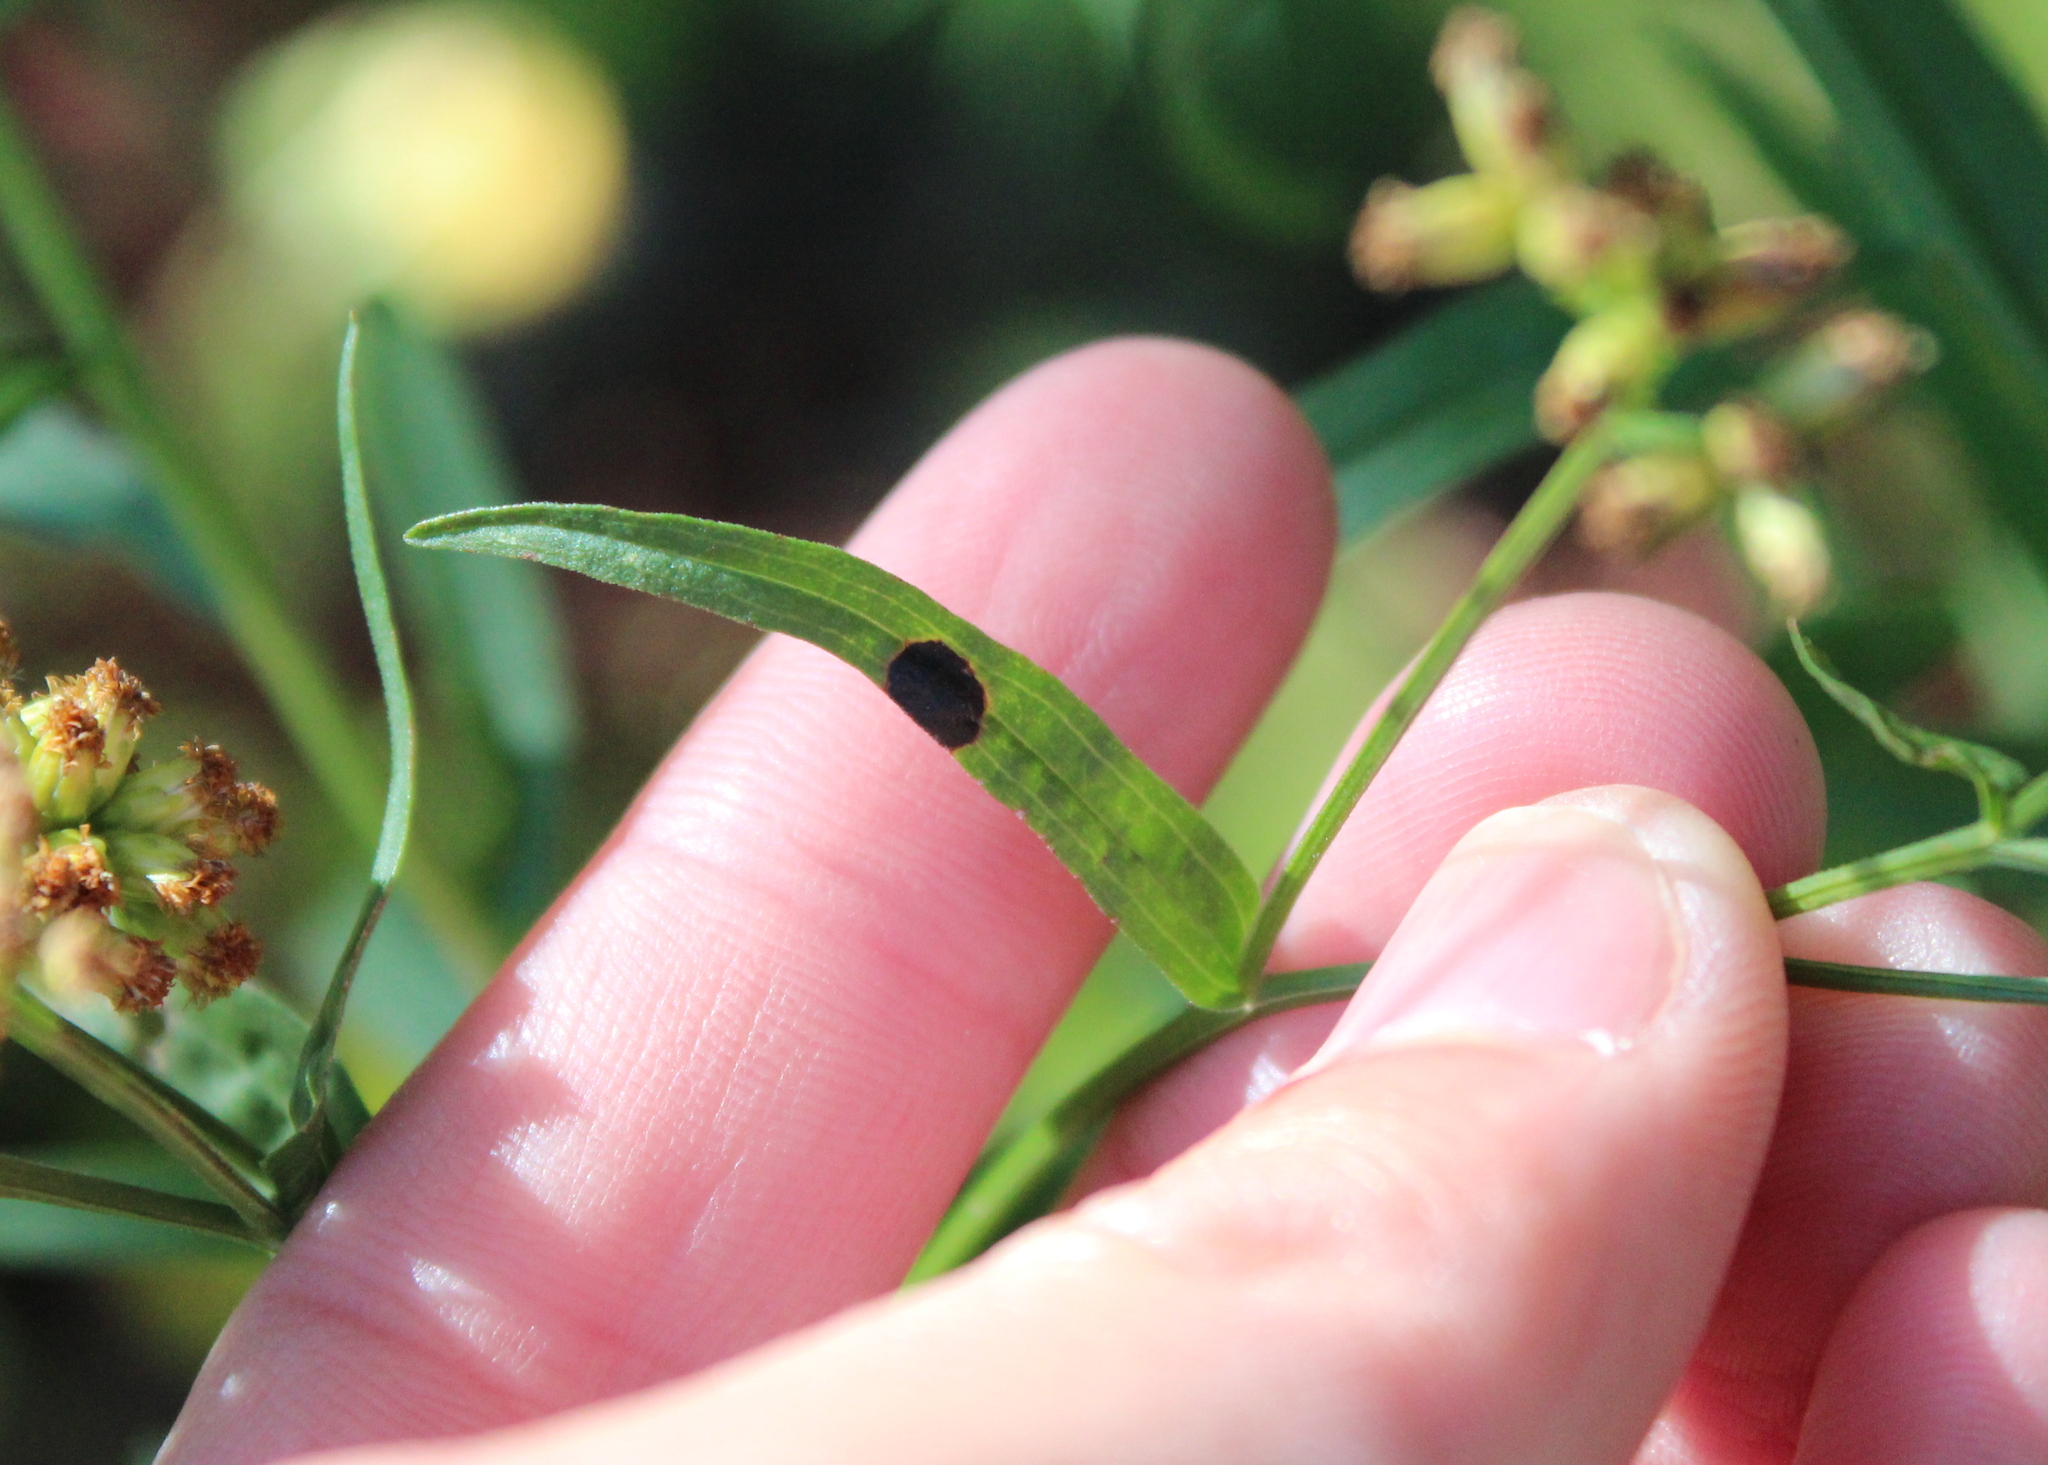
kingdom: Animalia
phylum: Arthropoda
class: Insecta
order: Diptera
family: Cecidomyiidae
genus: Asteromyia
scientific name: Asteromyia euthamiae
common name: Euthamia leaf gall midge
